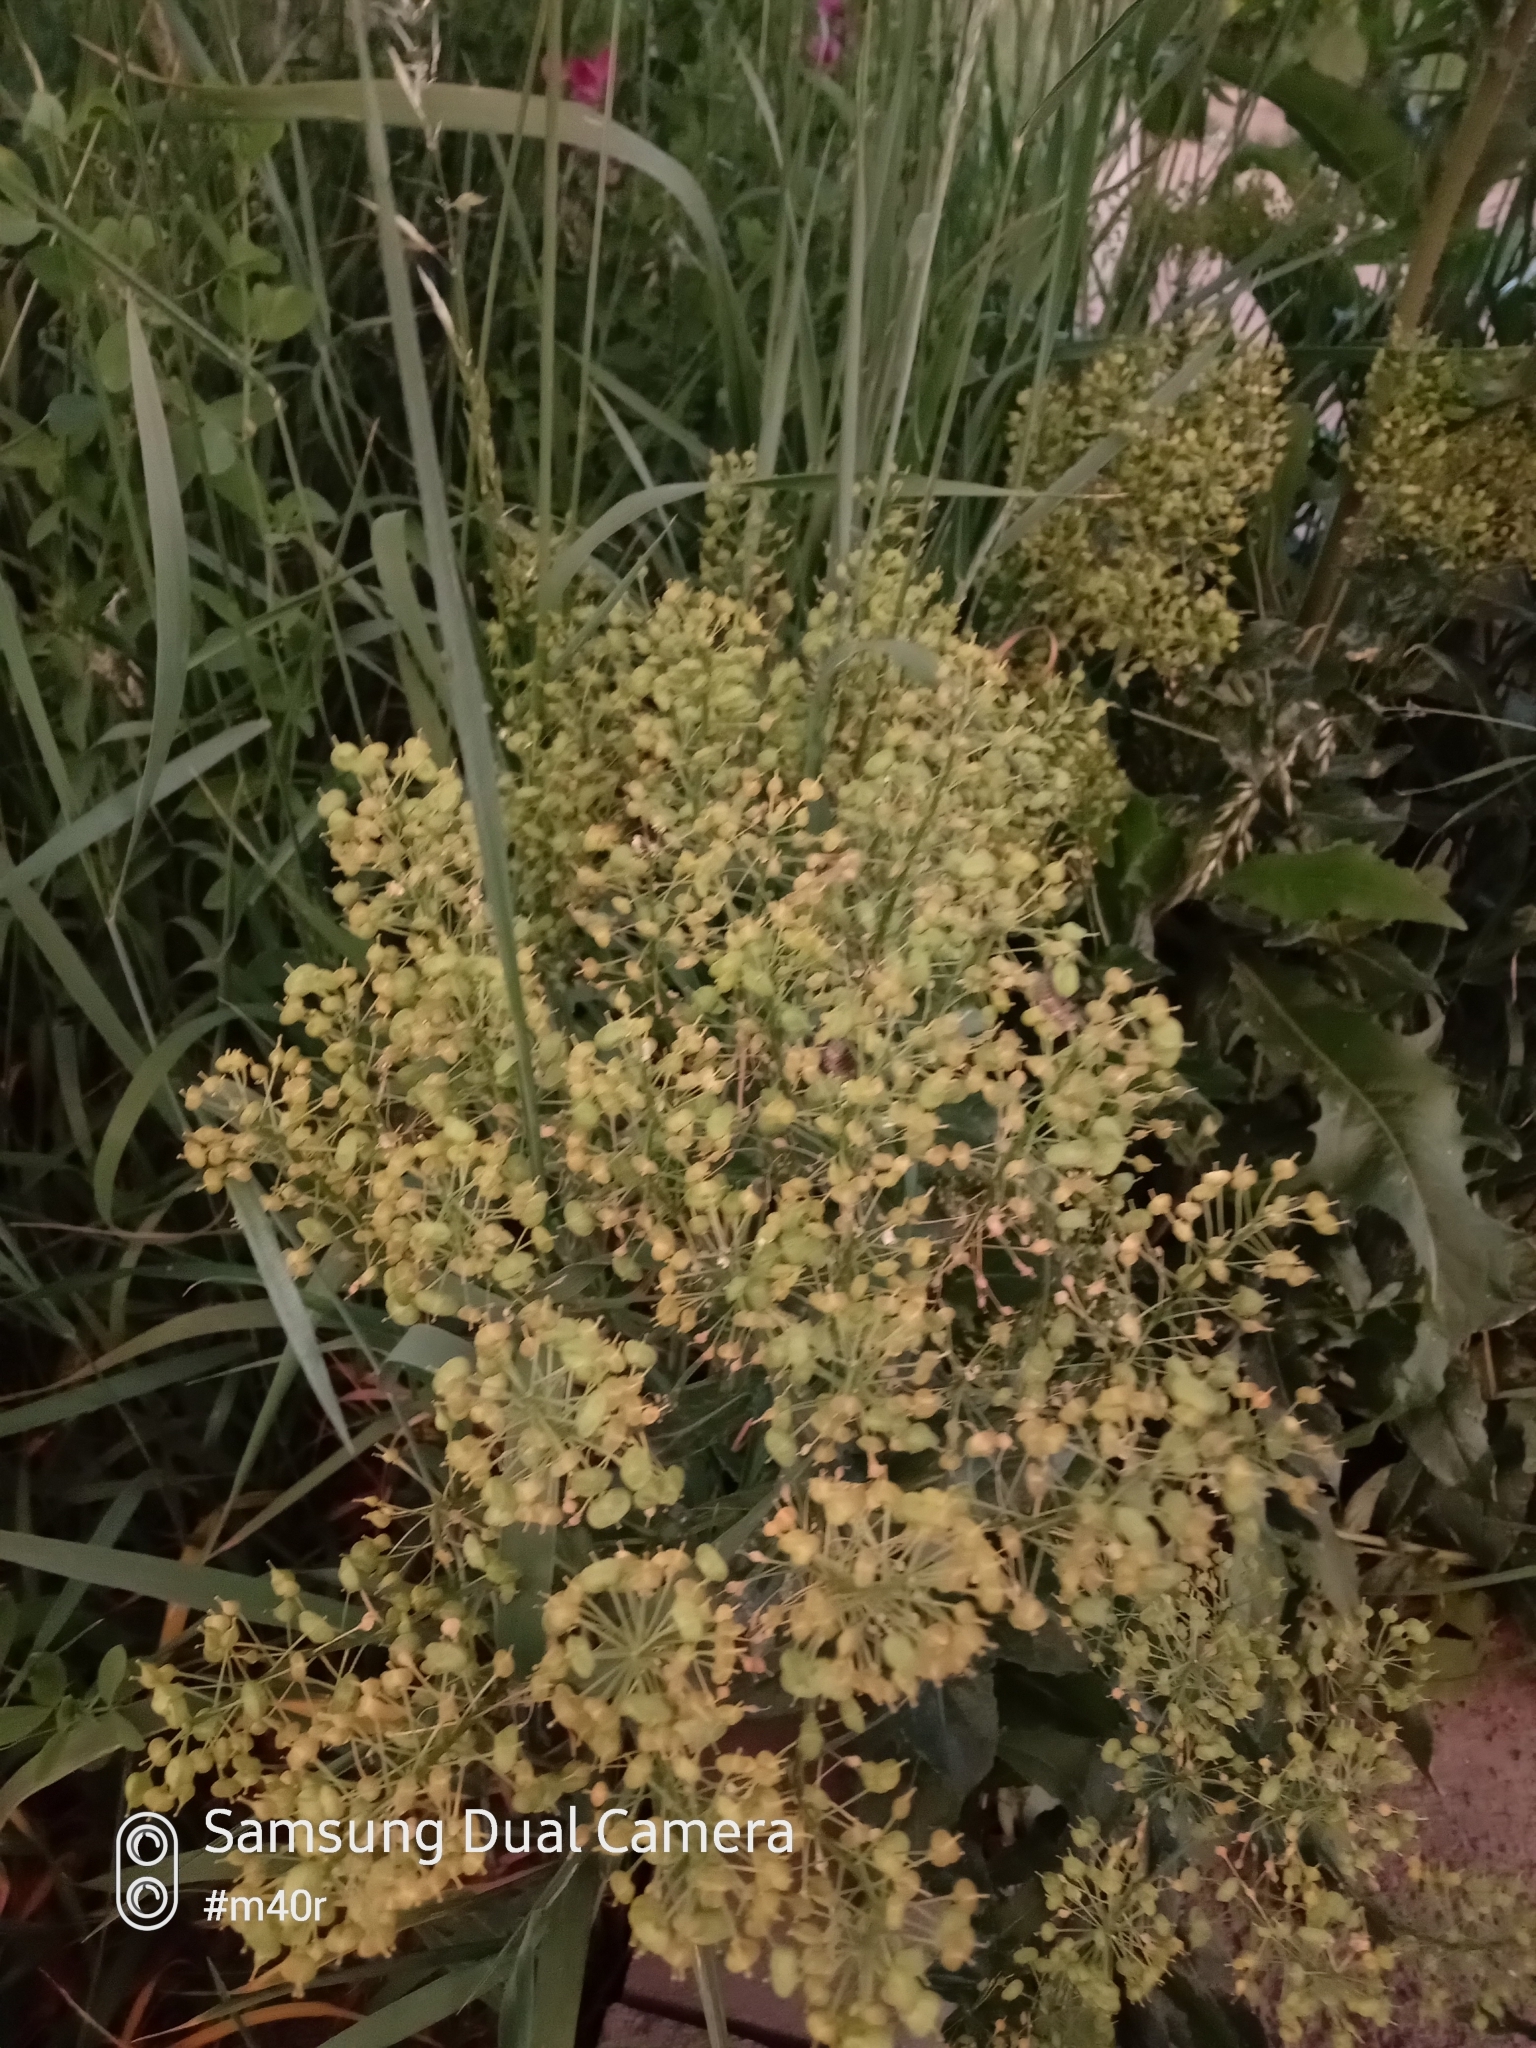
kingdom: Plantae
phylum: Tracheophyta
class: Magnoliopsida
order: Brassicales
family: Brassicaceae
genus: Lepidium
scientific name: Lepidium chalepense
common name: Orbicular whitetop
